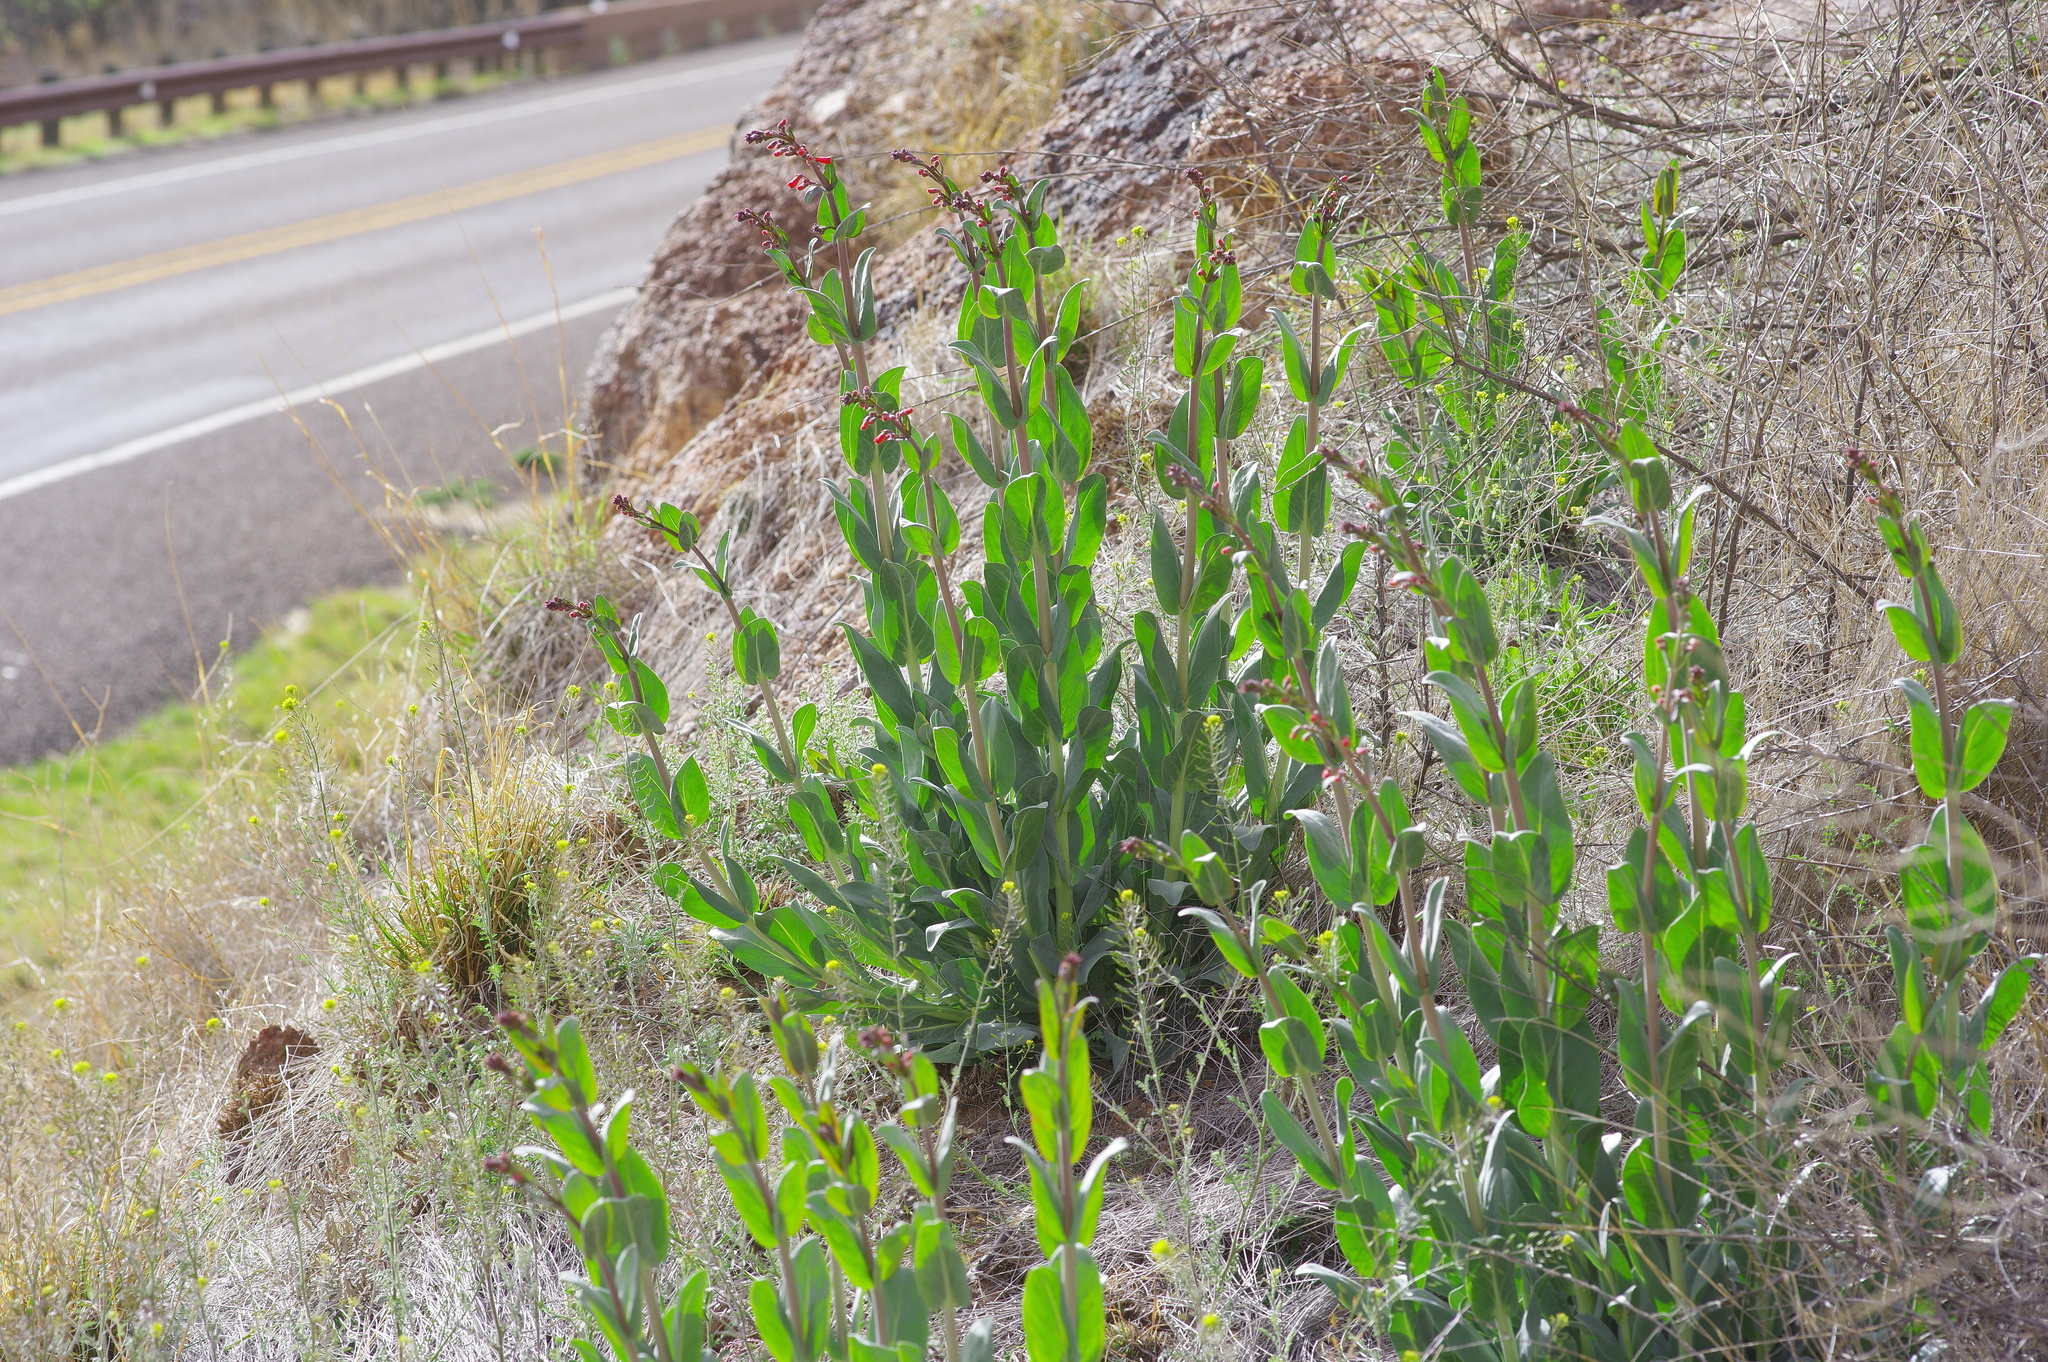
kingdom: Plantae
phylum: Tracheophyta
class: Magnoliopsida
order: Lamiales
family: Plantaginaceae
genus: Penstemon
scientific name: Penstemon wrightii
